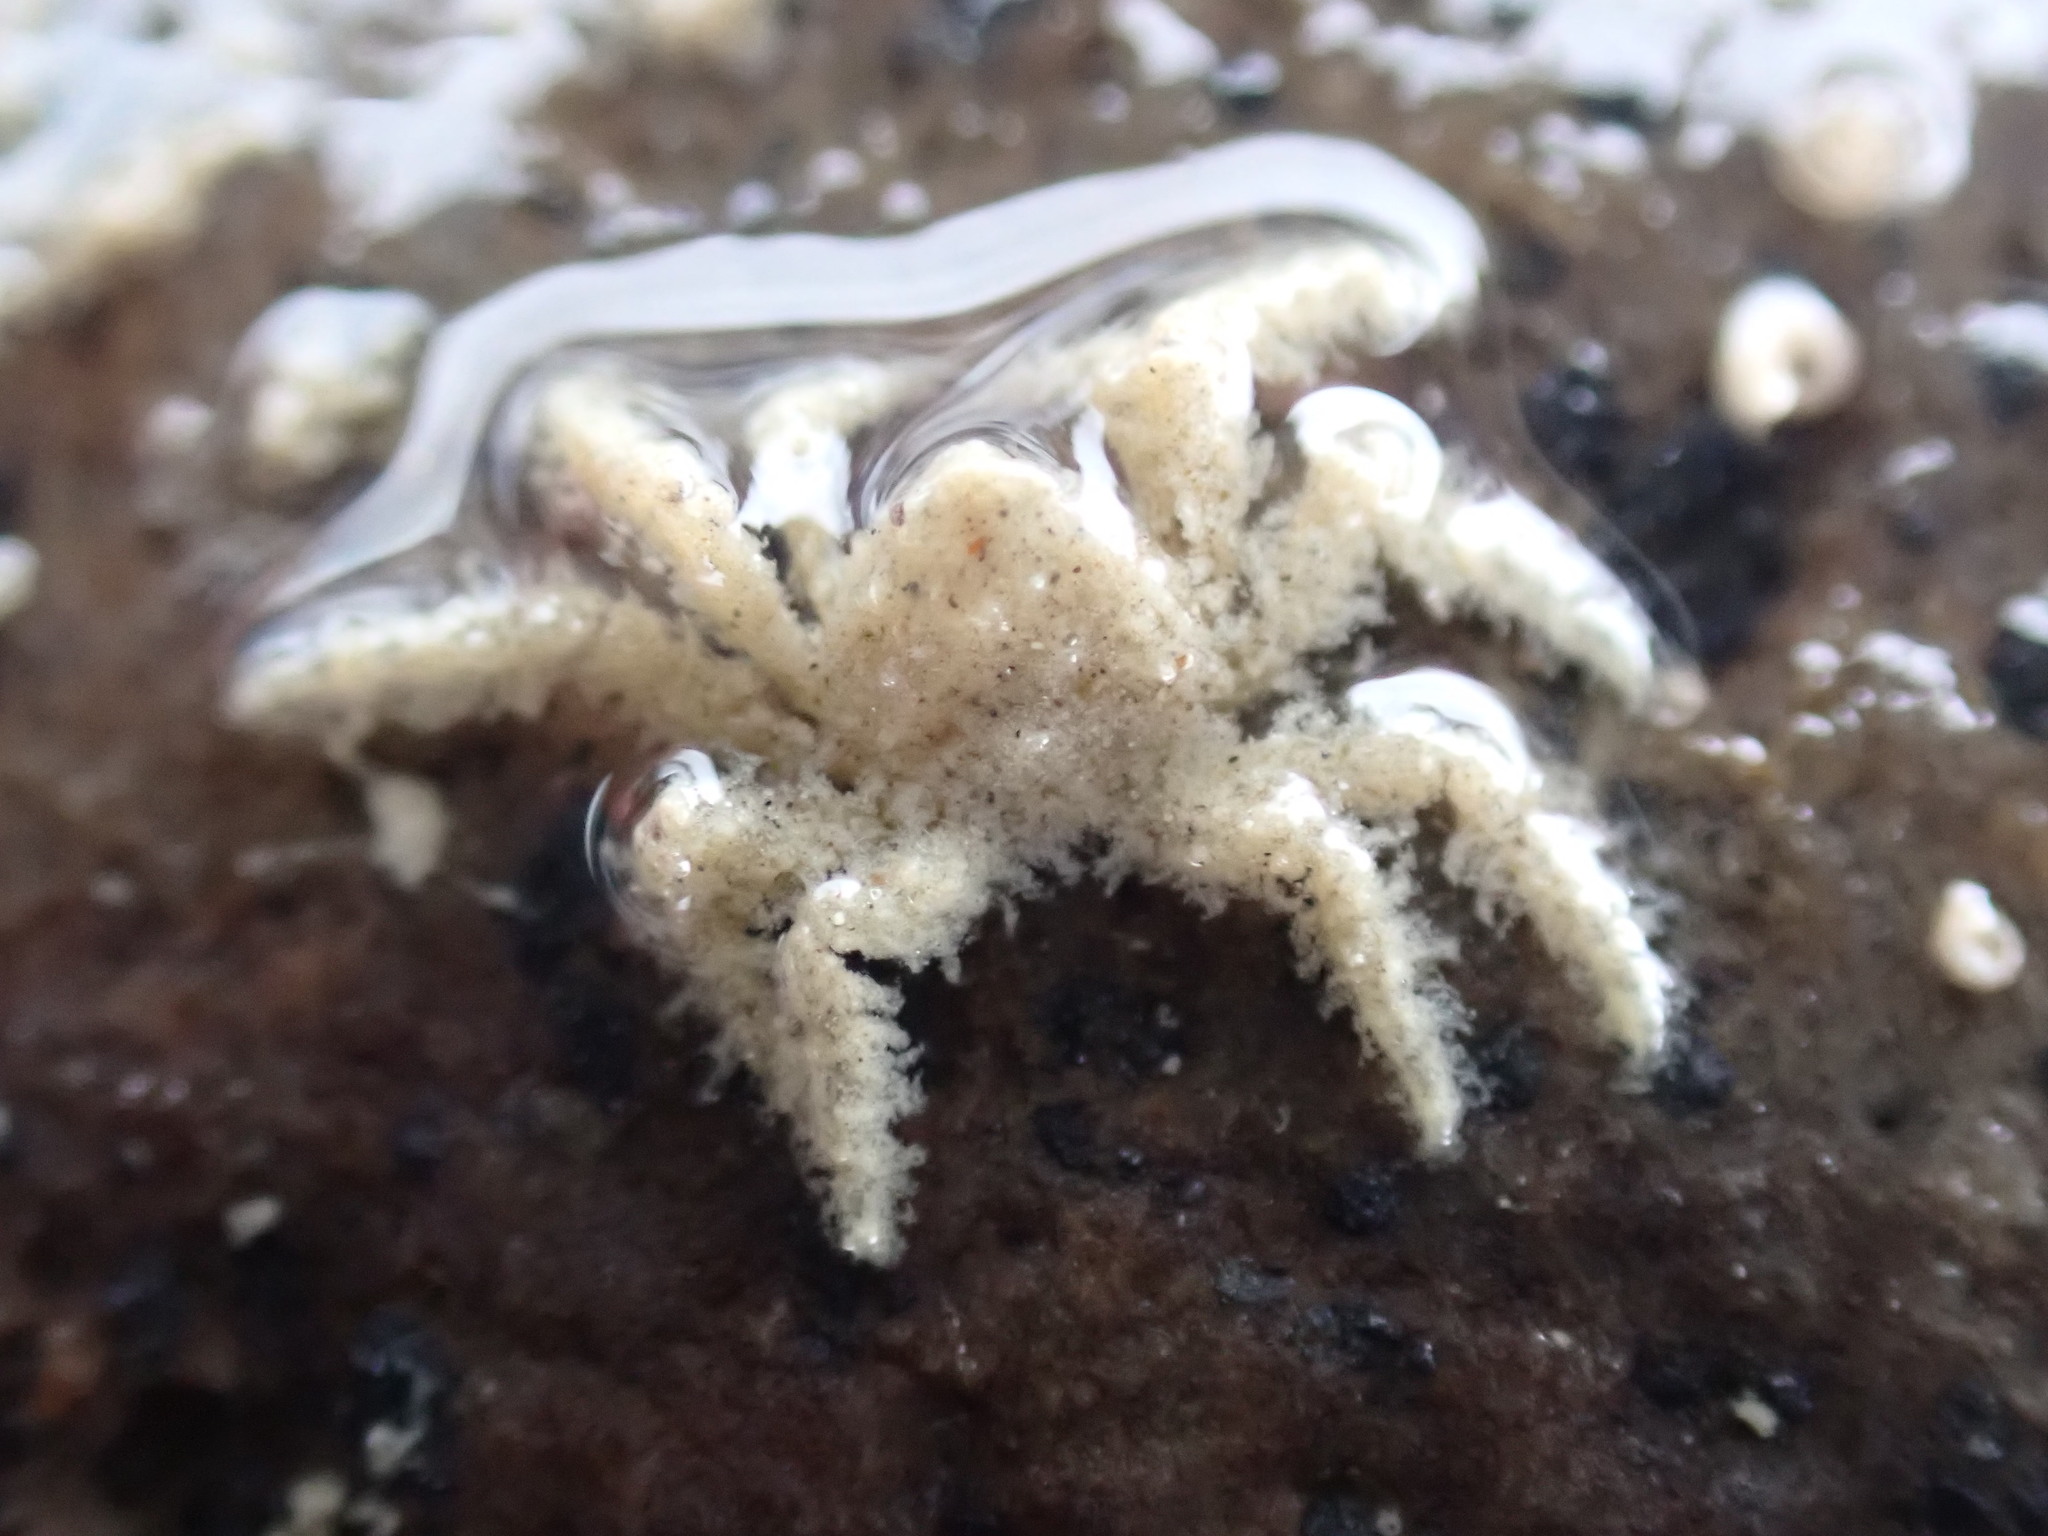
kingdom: Animalia
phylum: Arthropoda
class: Malacostraca
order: Decapoda
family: Hymenosomatidae
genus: Neohymenicus
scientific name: Neohymenicus pubescens
